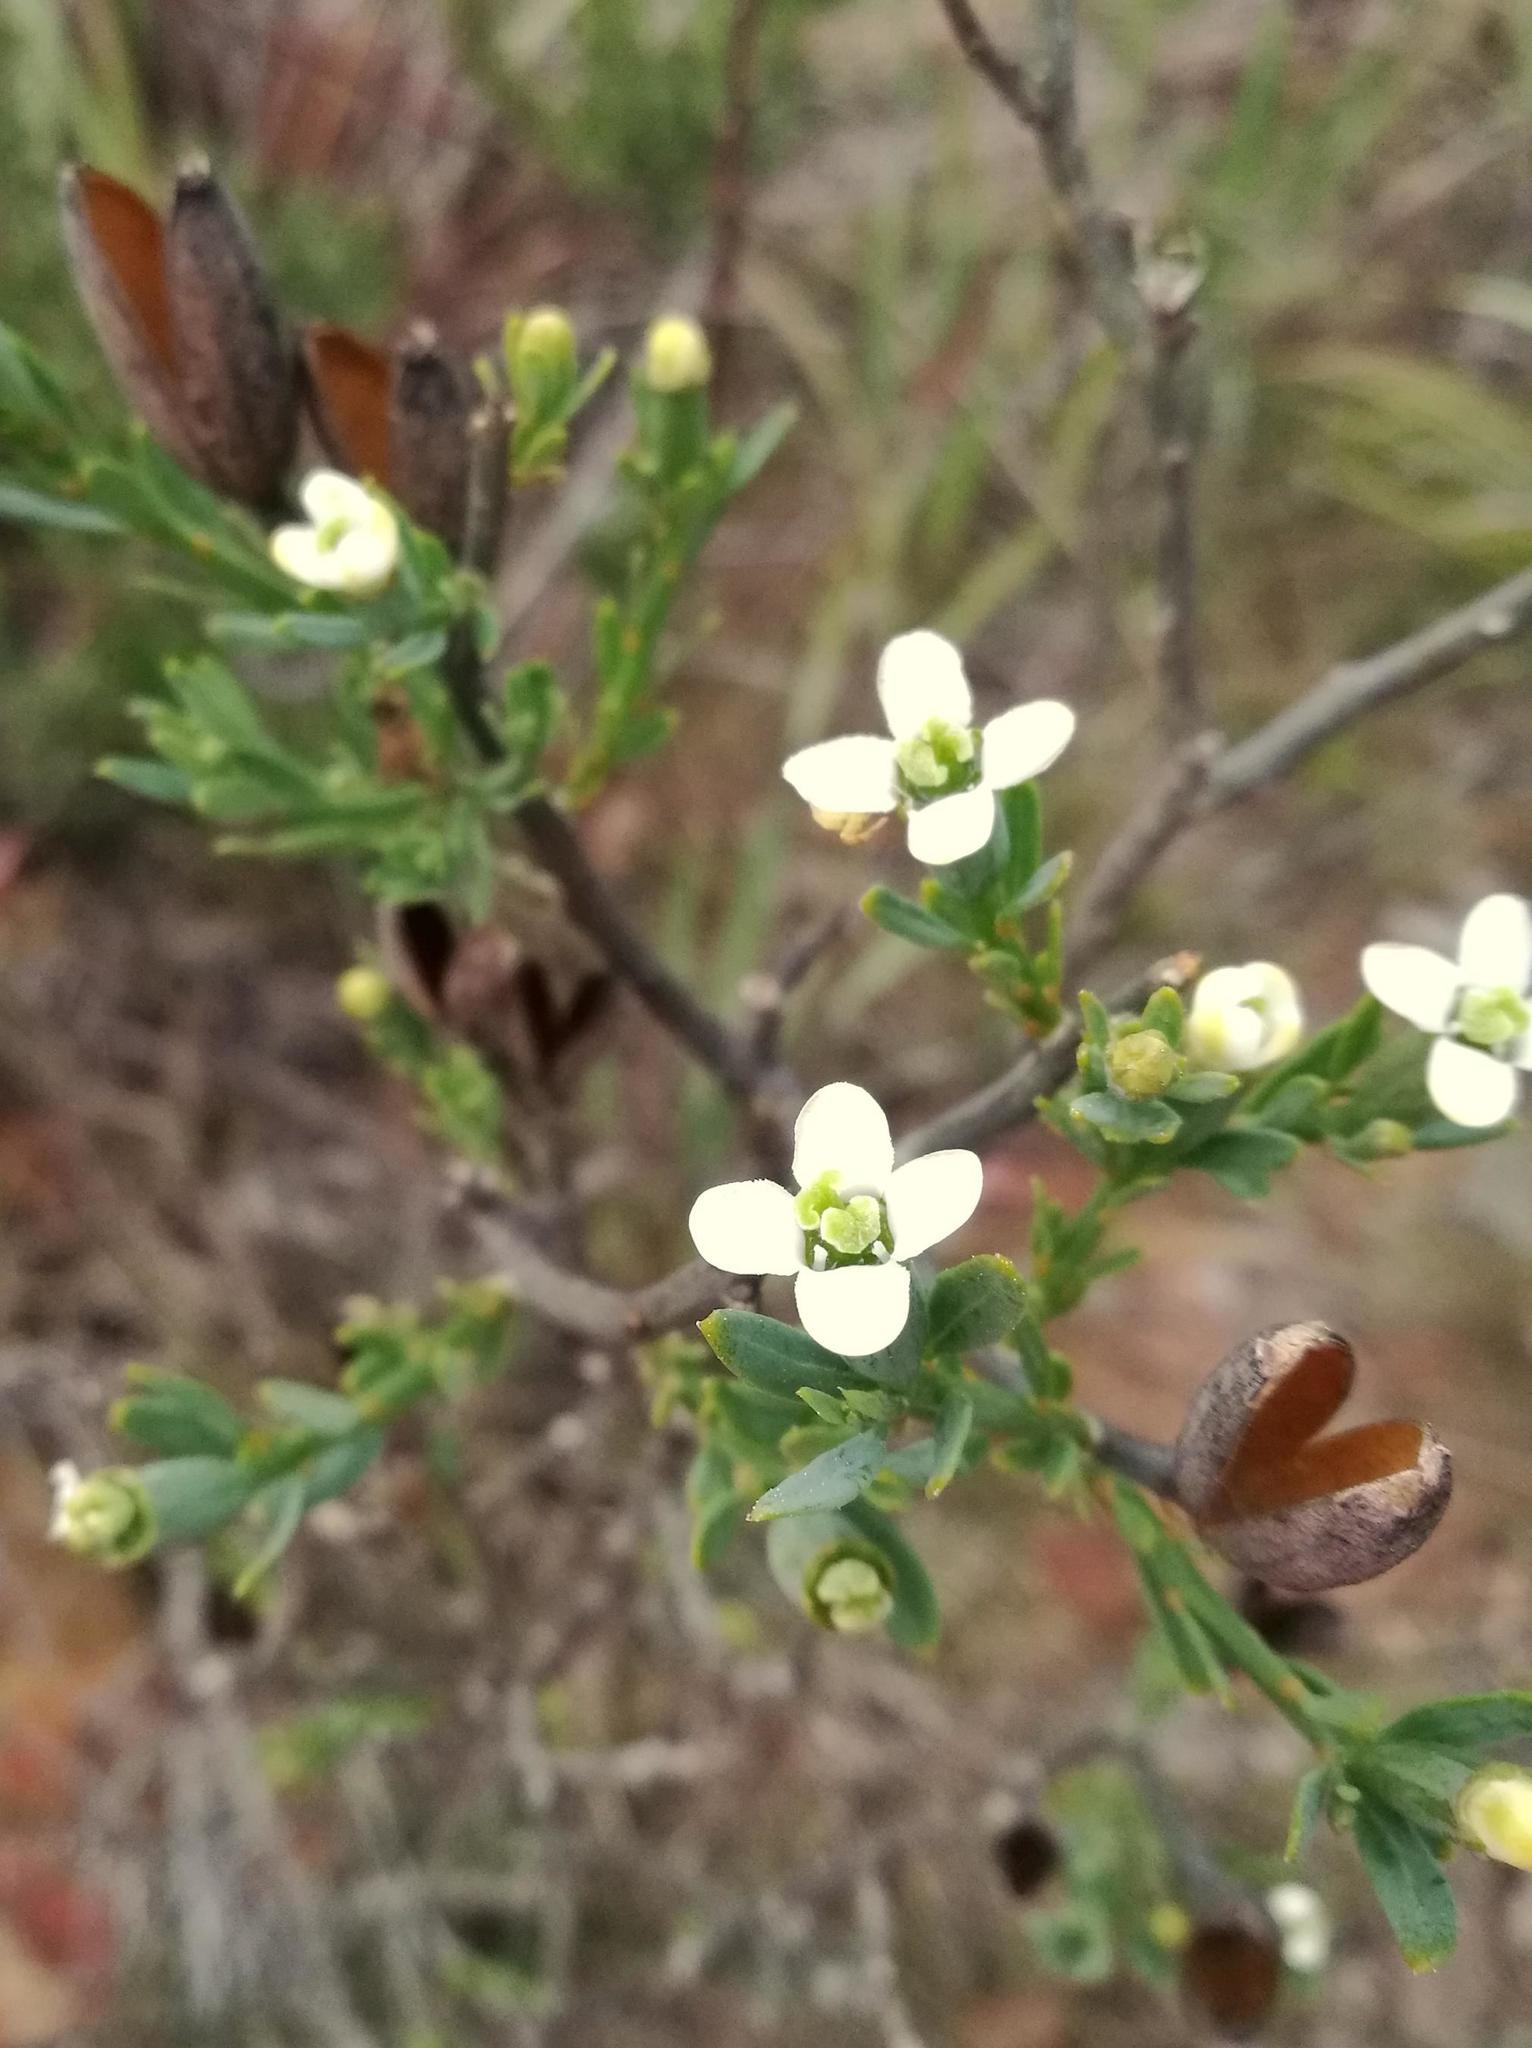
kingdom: Plantae
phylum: Tracheophyta
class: Magnoliopsida
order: Solanales
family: Montiniaceae
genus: Montinia
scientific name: Montinia caryophyllacea
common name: Wild clove-bush
